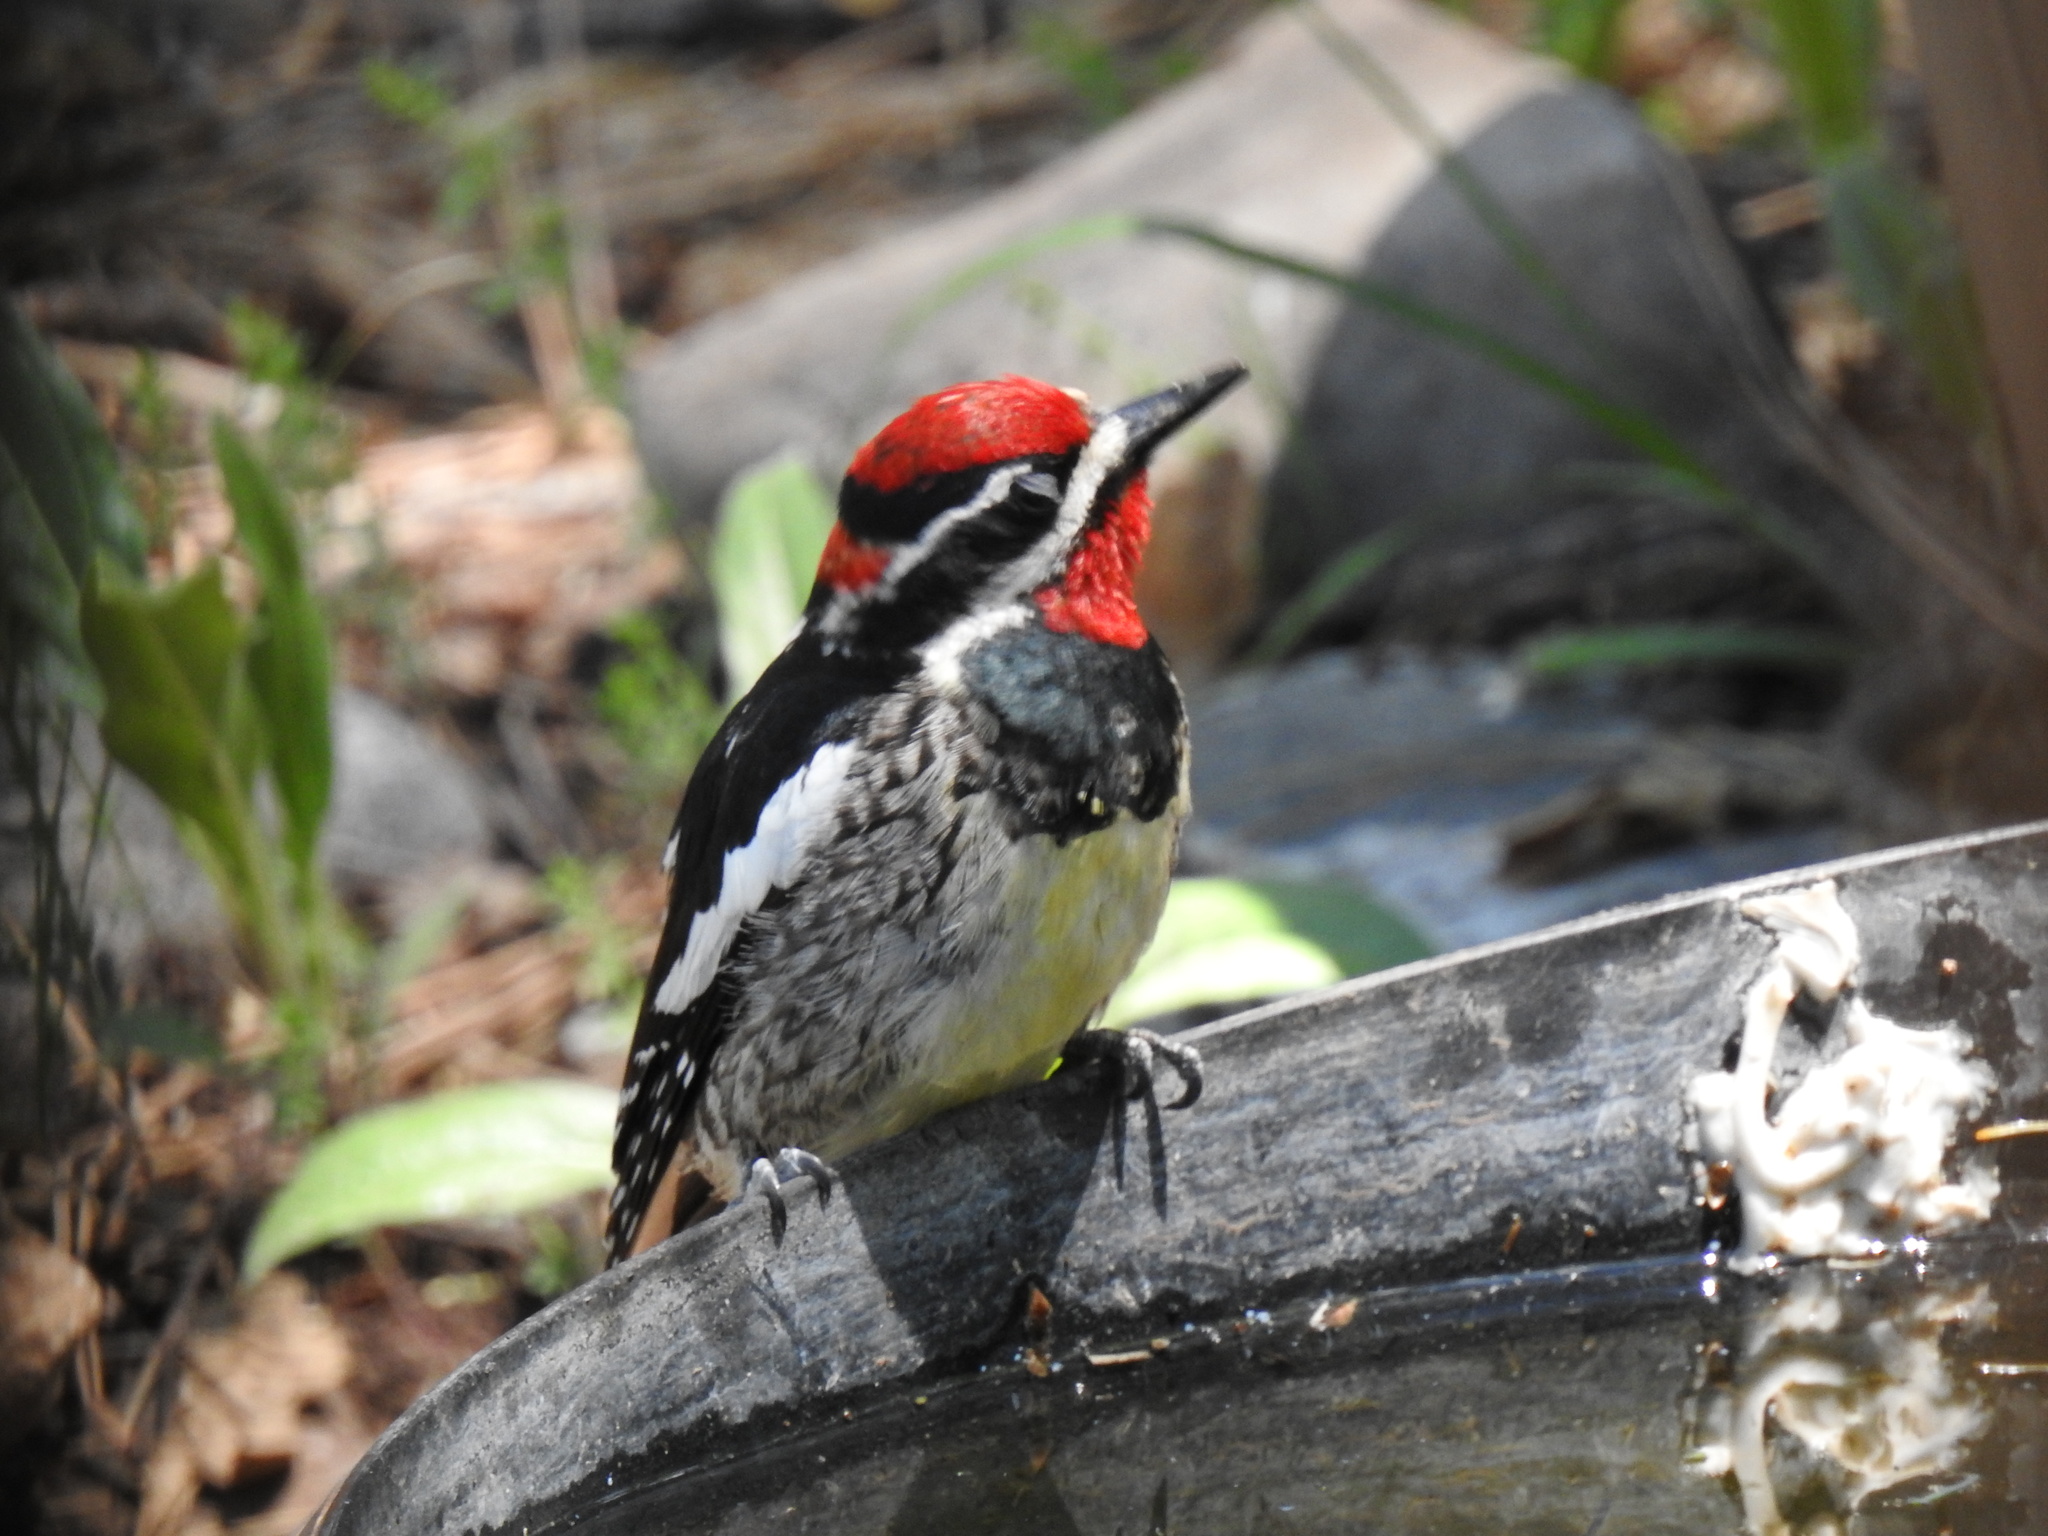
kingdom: Animalia
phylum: Chordata
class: Aves
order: Piciformes
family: Picidae
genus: Sphyrapicus
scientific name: Sphyrapicus nuchalis
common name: Red-naped sapsucker
